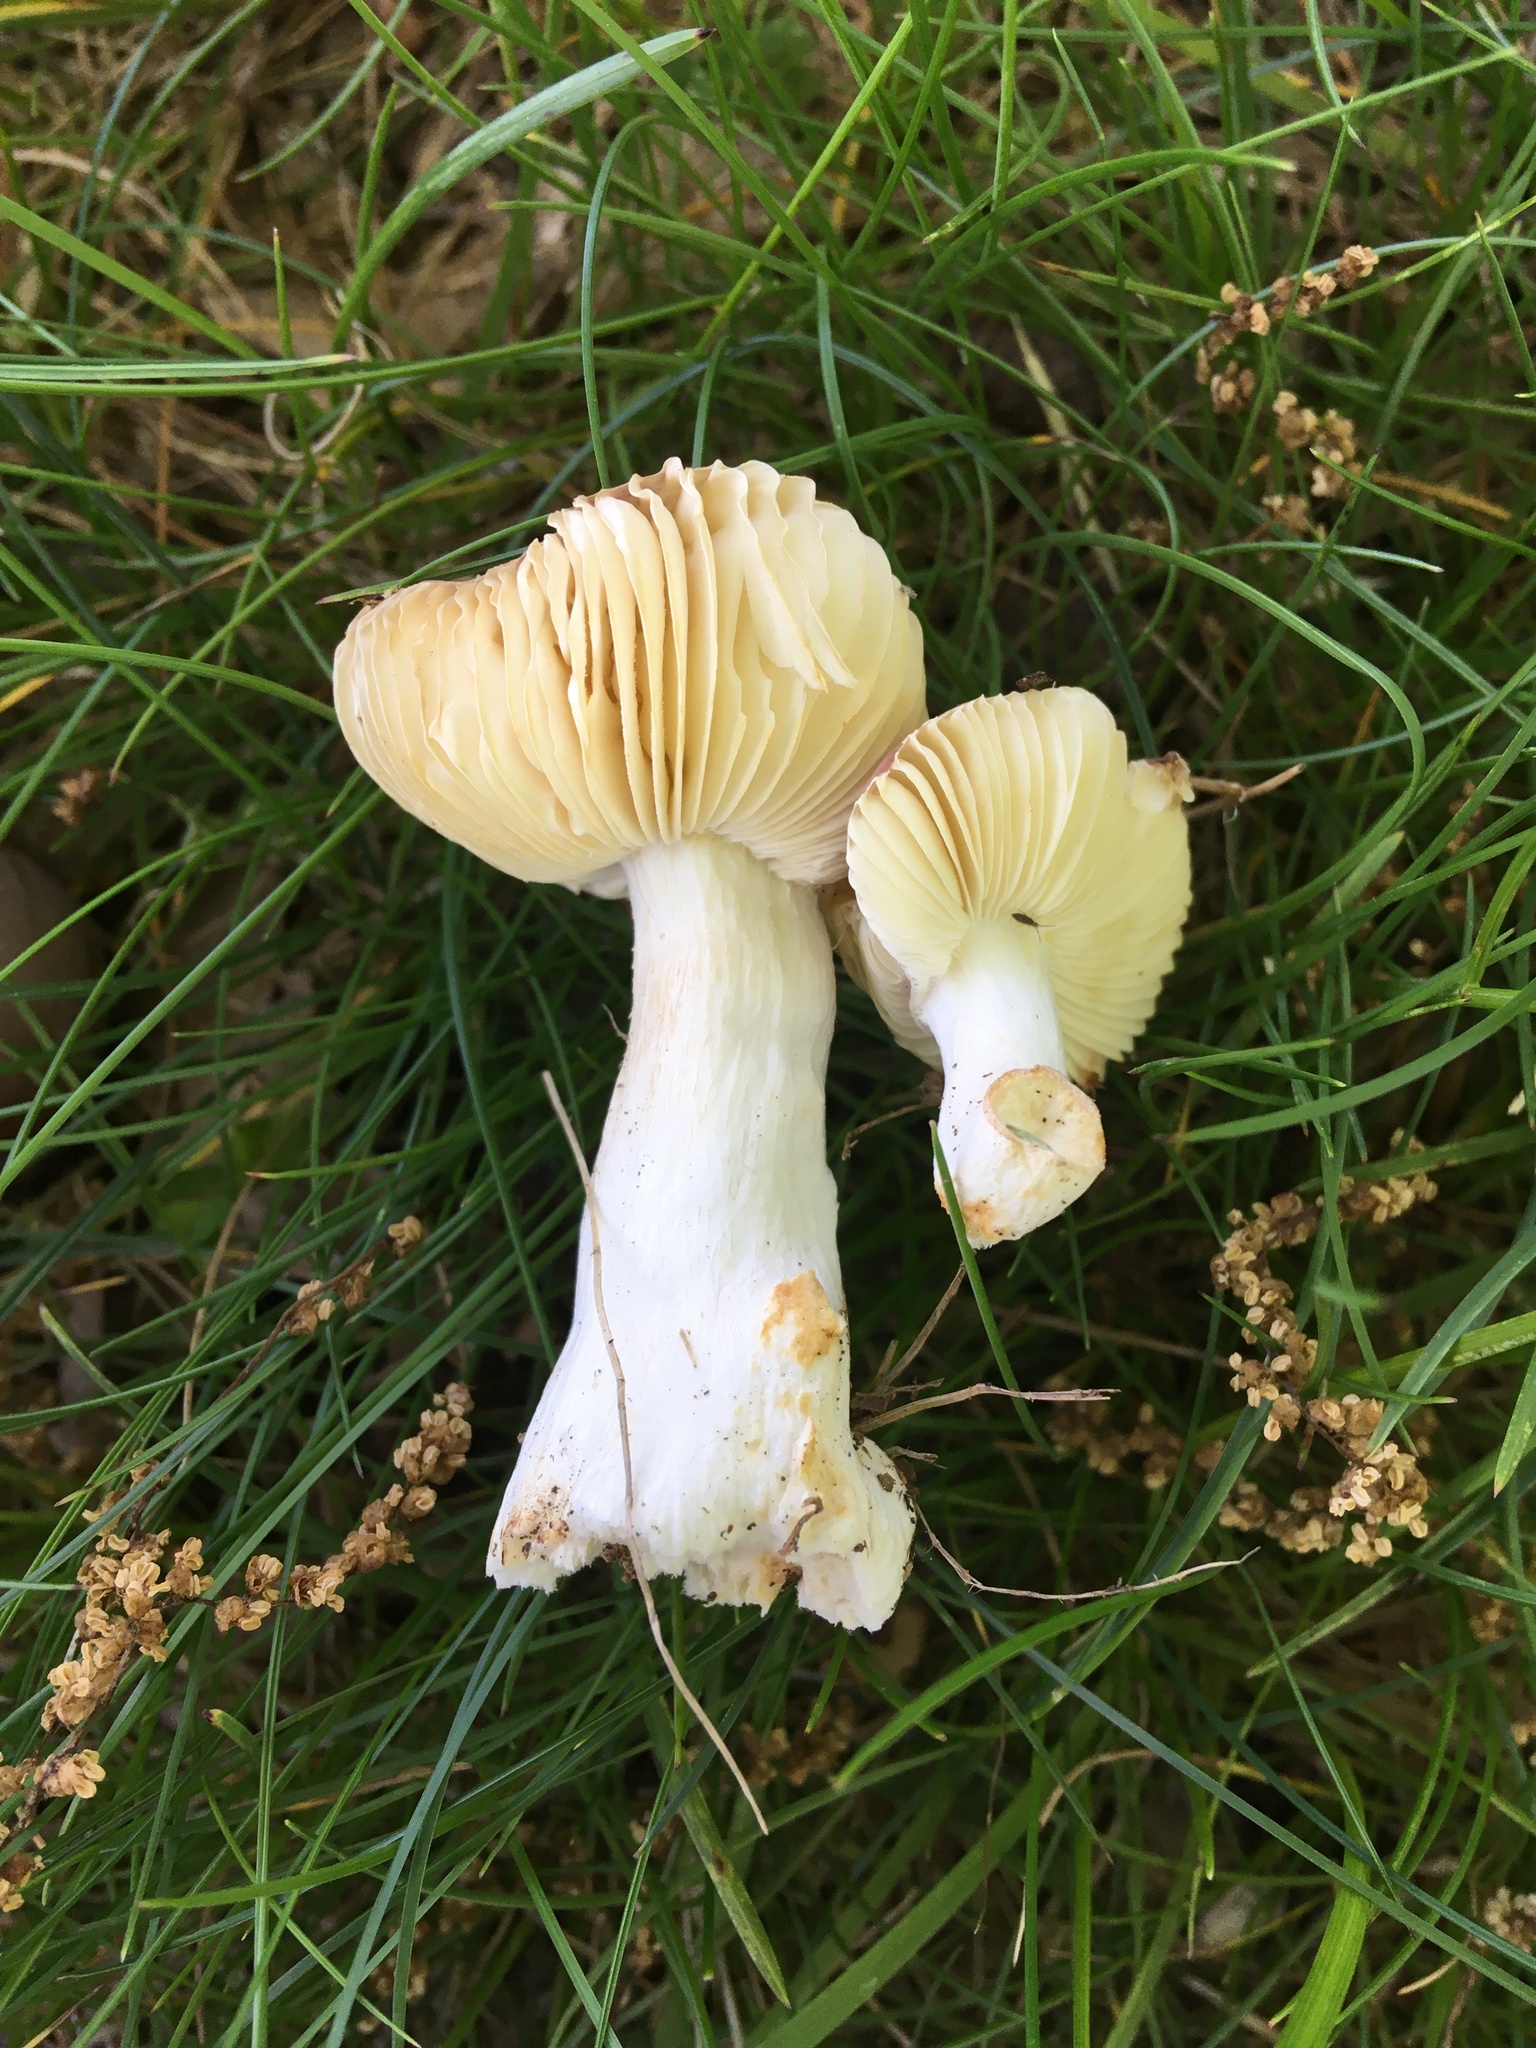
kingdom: Fungi
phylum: Basidiomycota
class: Agaricomycetes
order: Russulales
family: Russulaceae
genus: Russula
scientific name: Russula vinacea
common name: Blackish-red russula
